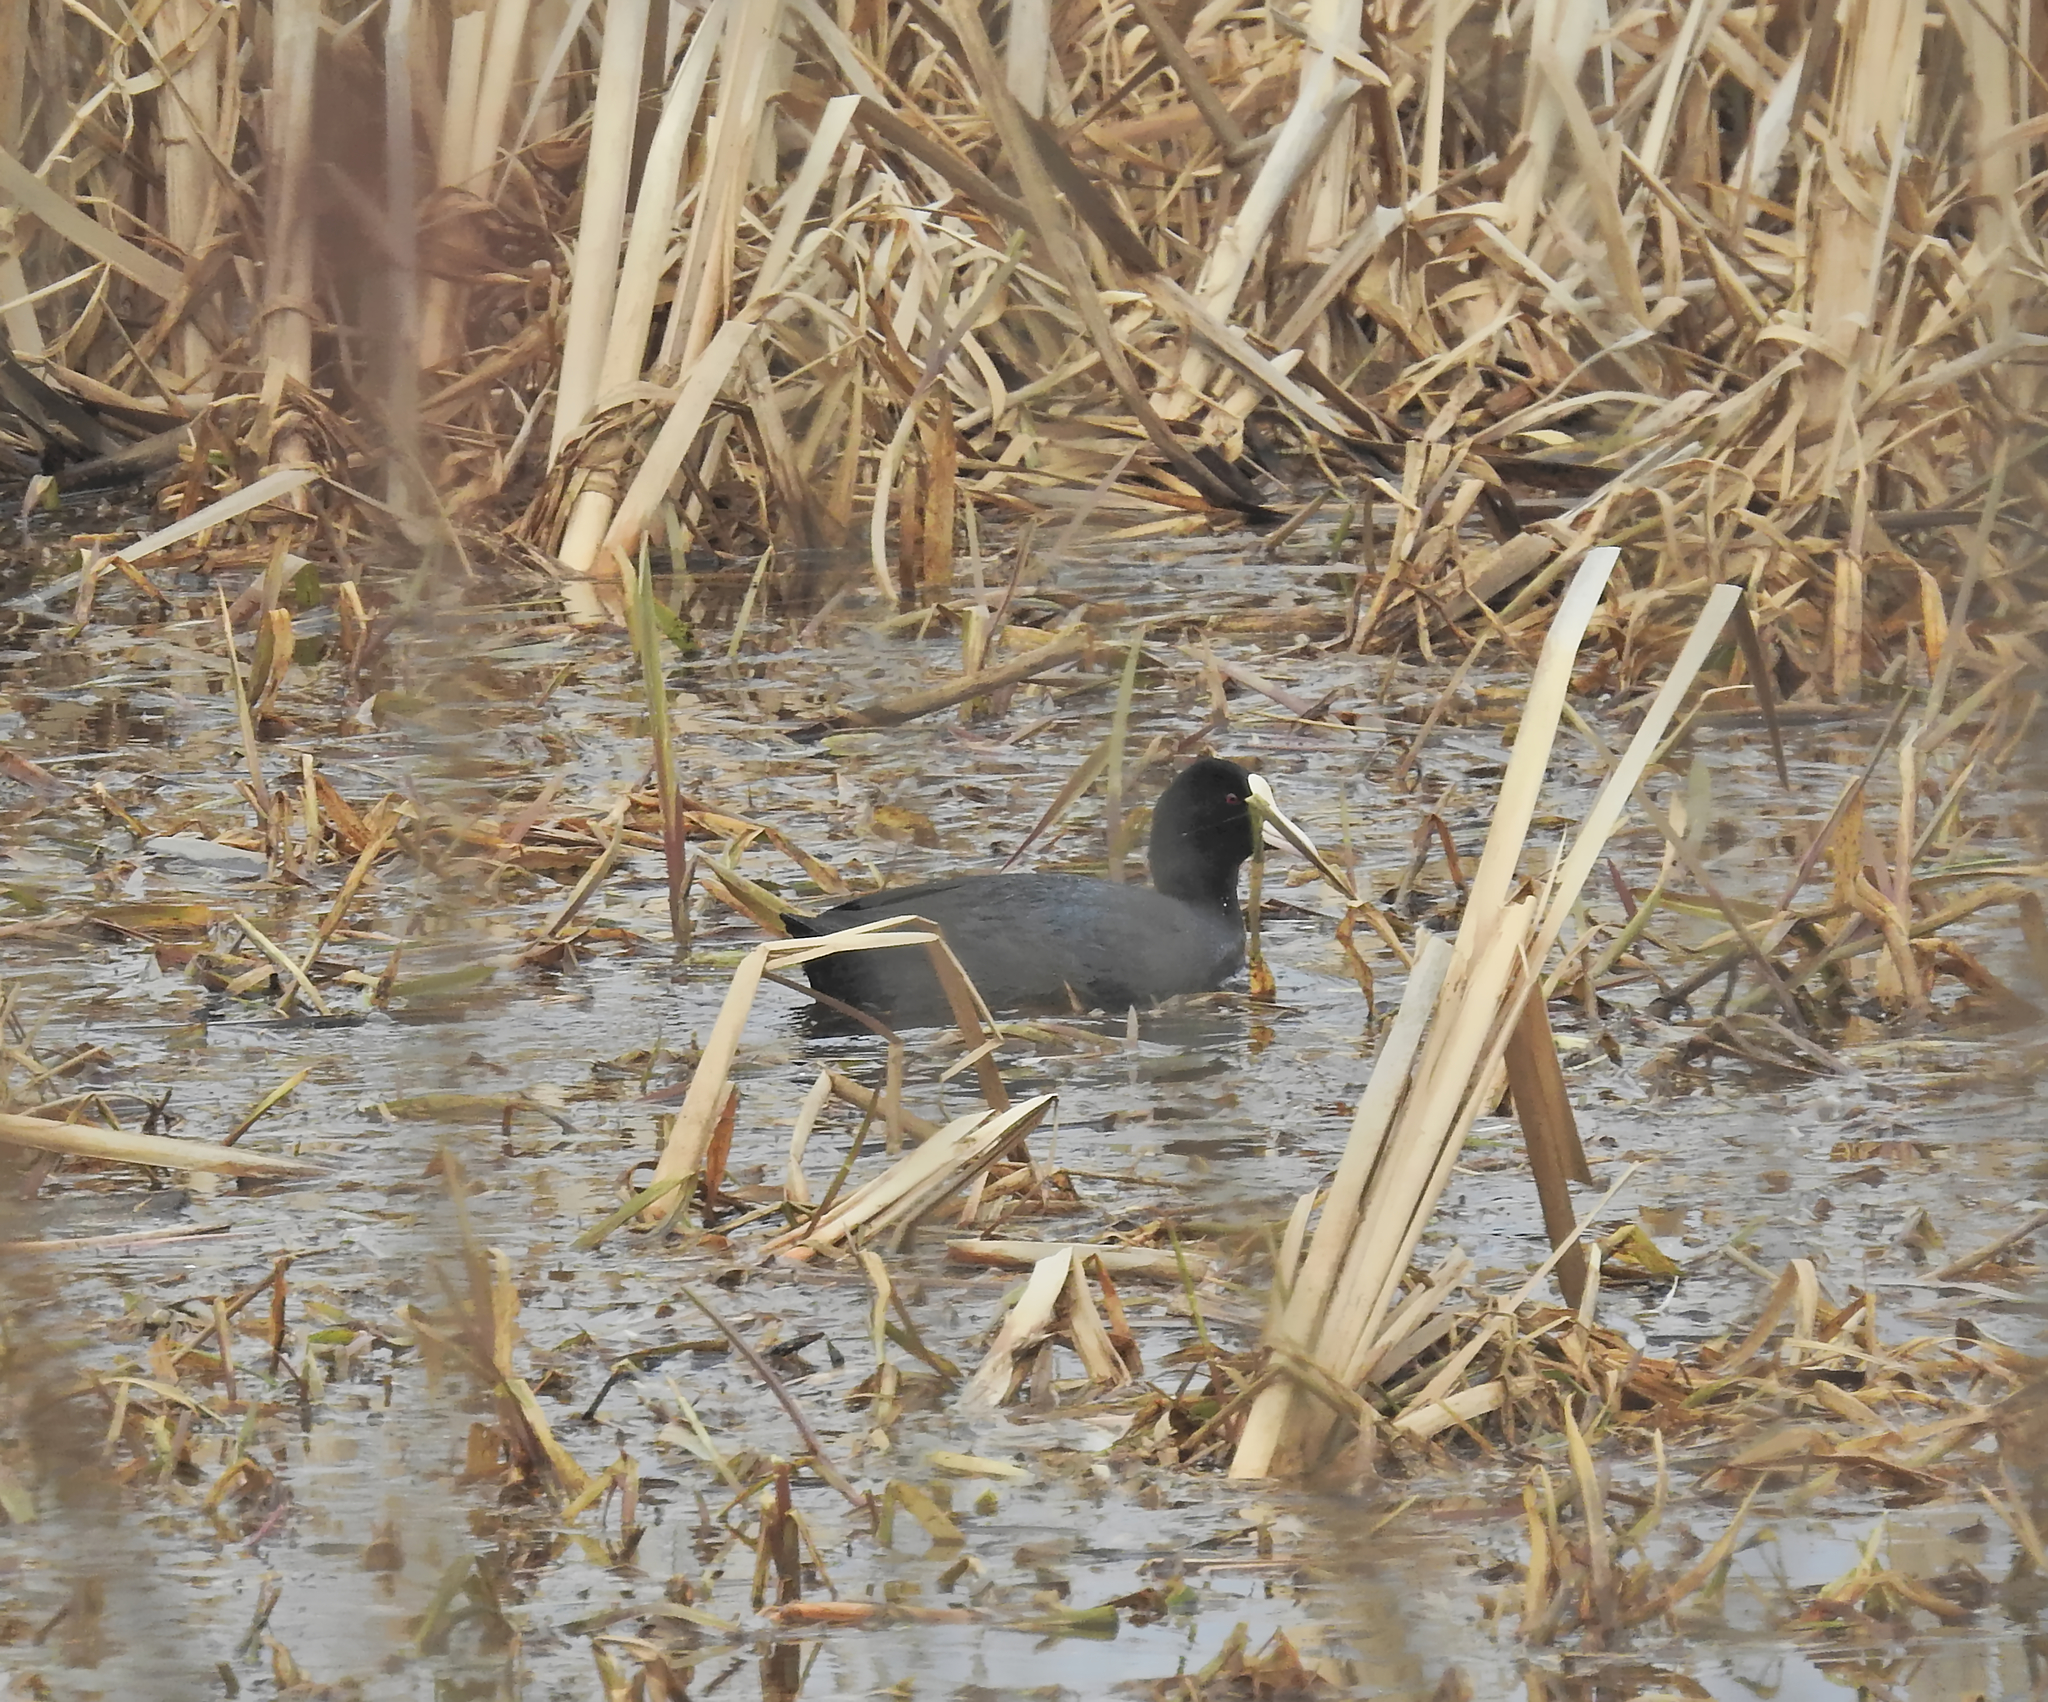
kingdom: Animalia
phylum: Chordata
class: Aves
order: Gruiformes
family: Rallidae
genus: Fulica
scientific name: Fulica atra
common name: Eurasian coot
